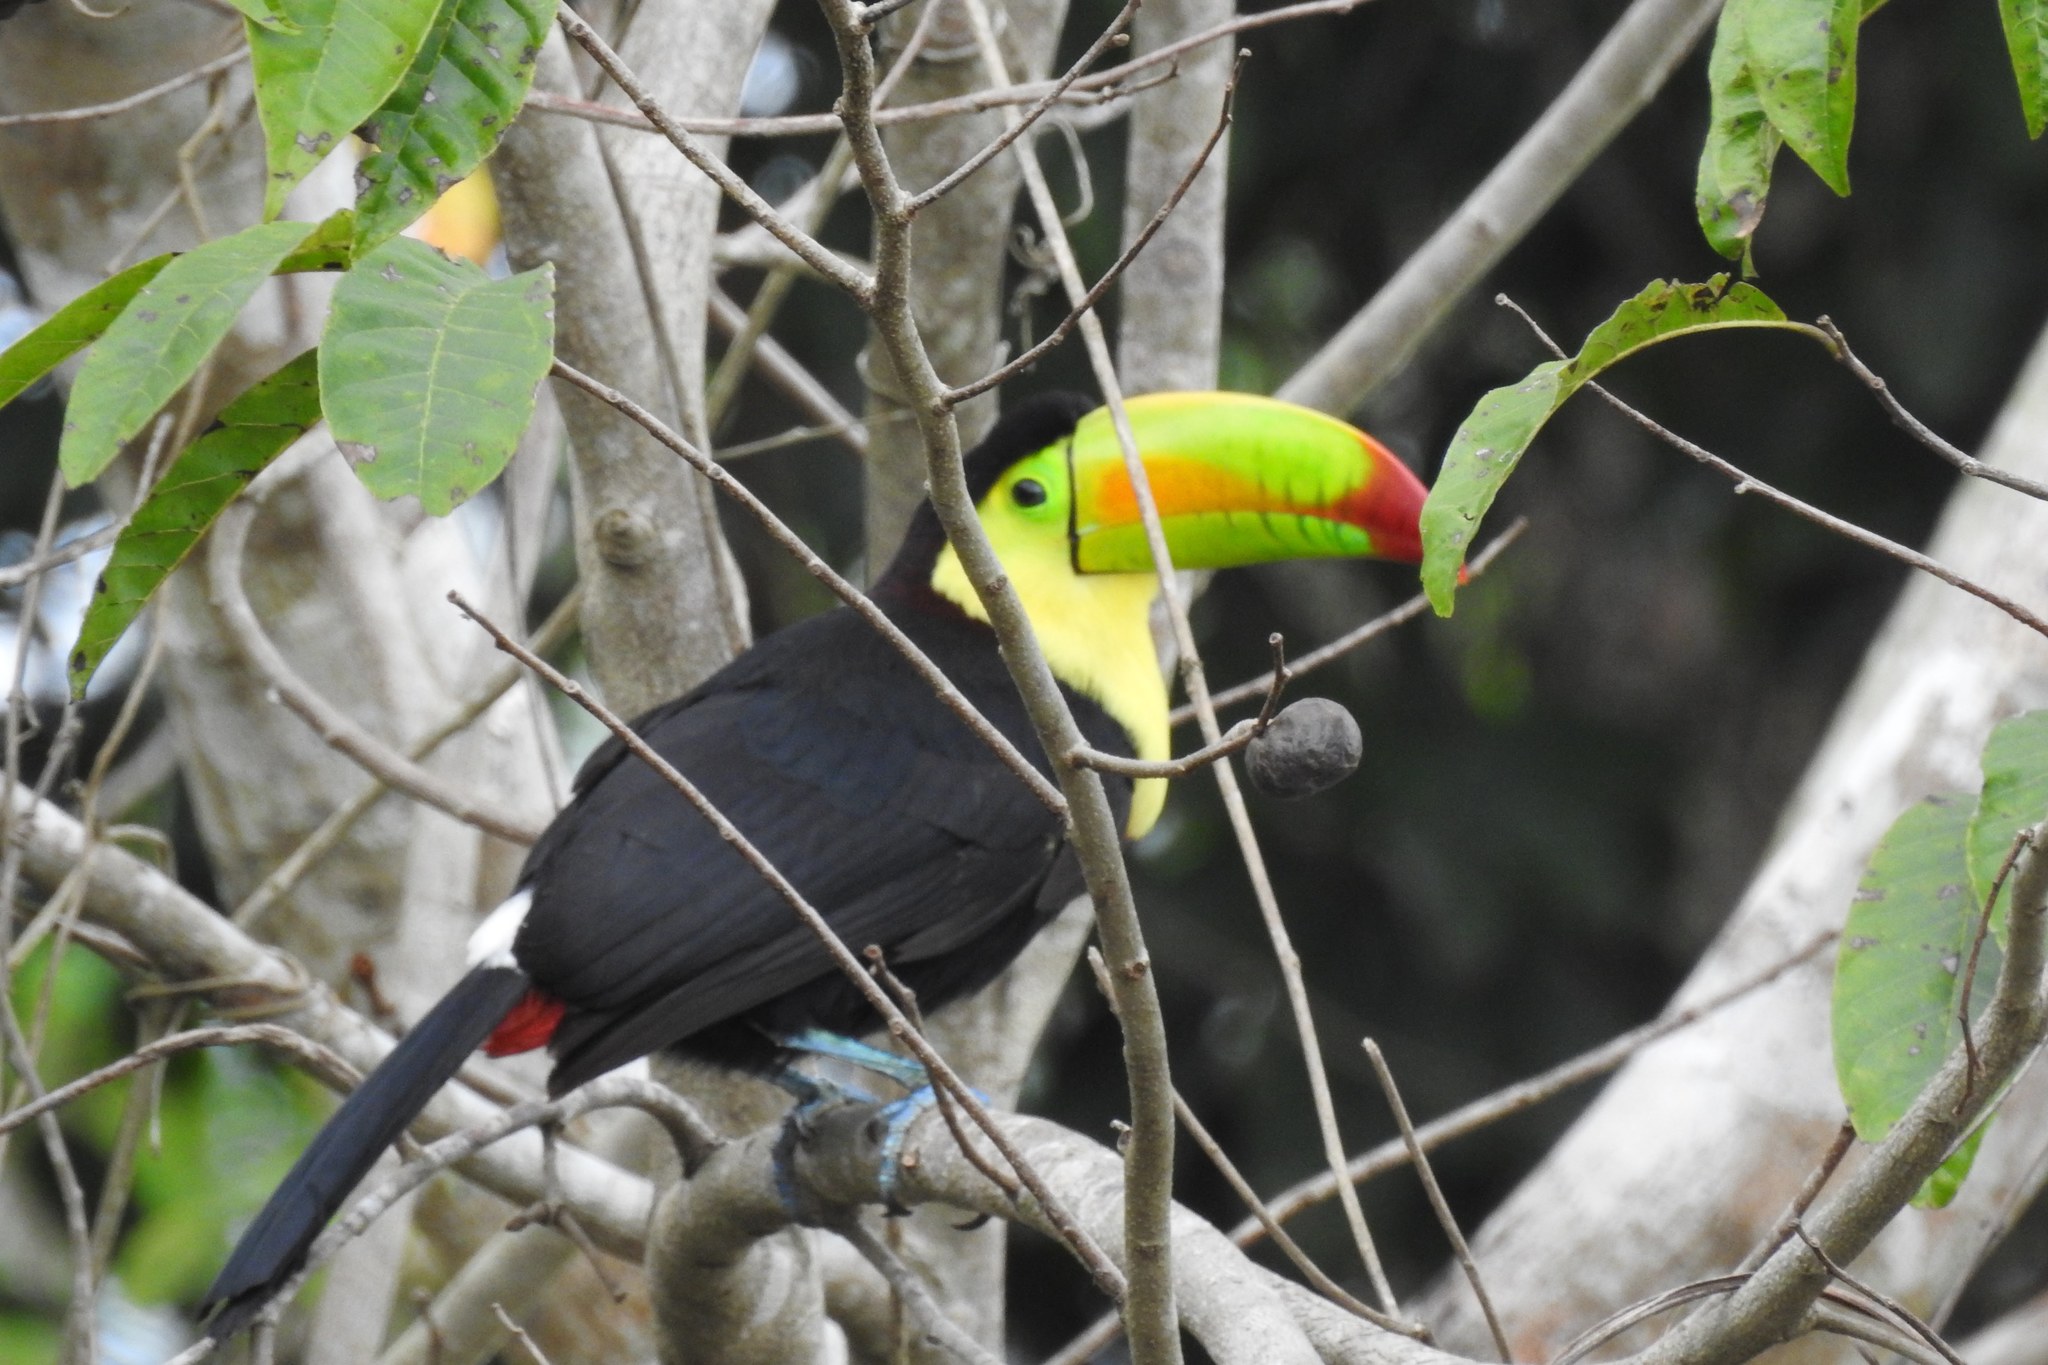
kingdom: Animalia
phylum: Chordata
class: Aves
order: Piciformes
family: Ramphastidae
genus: Ramphastos
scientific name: Ramphastos sulfuratus
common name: Keel-billed toucan
